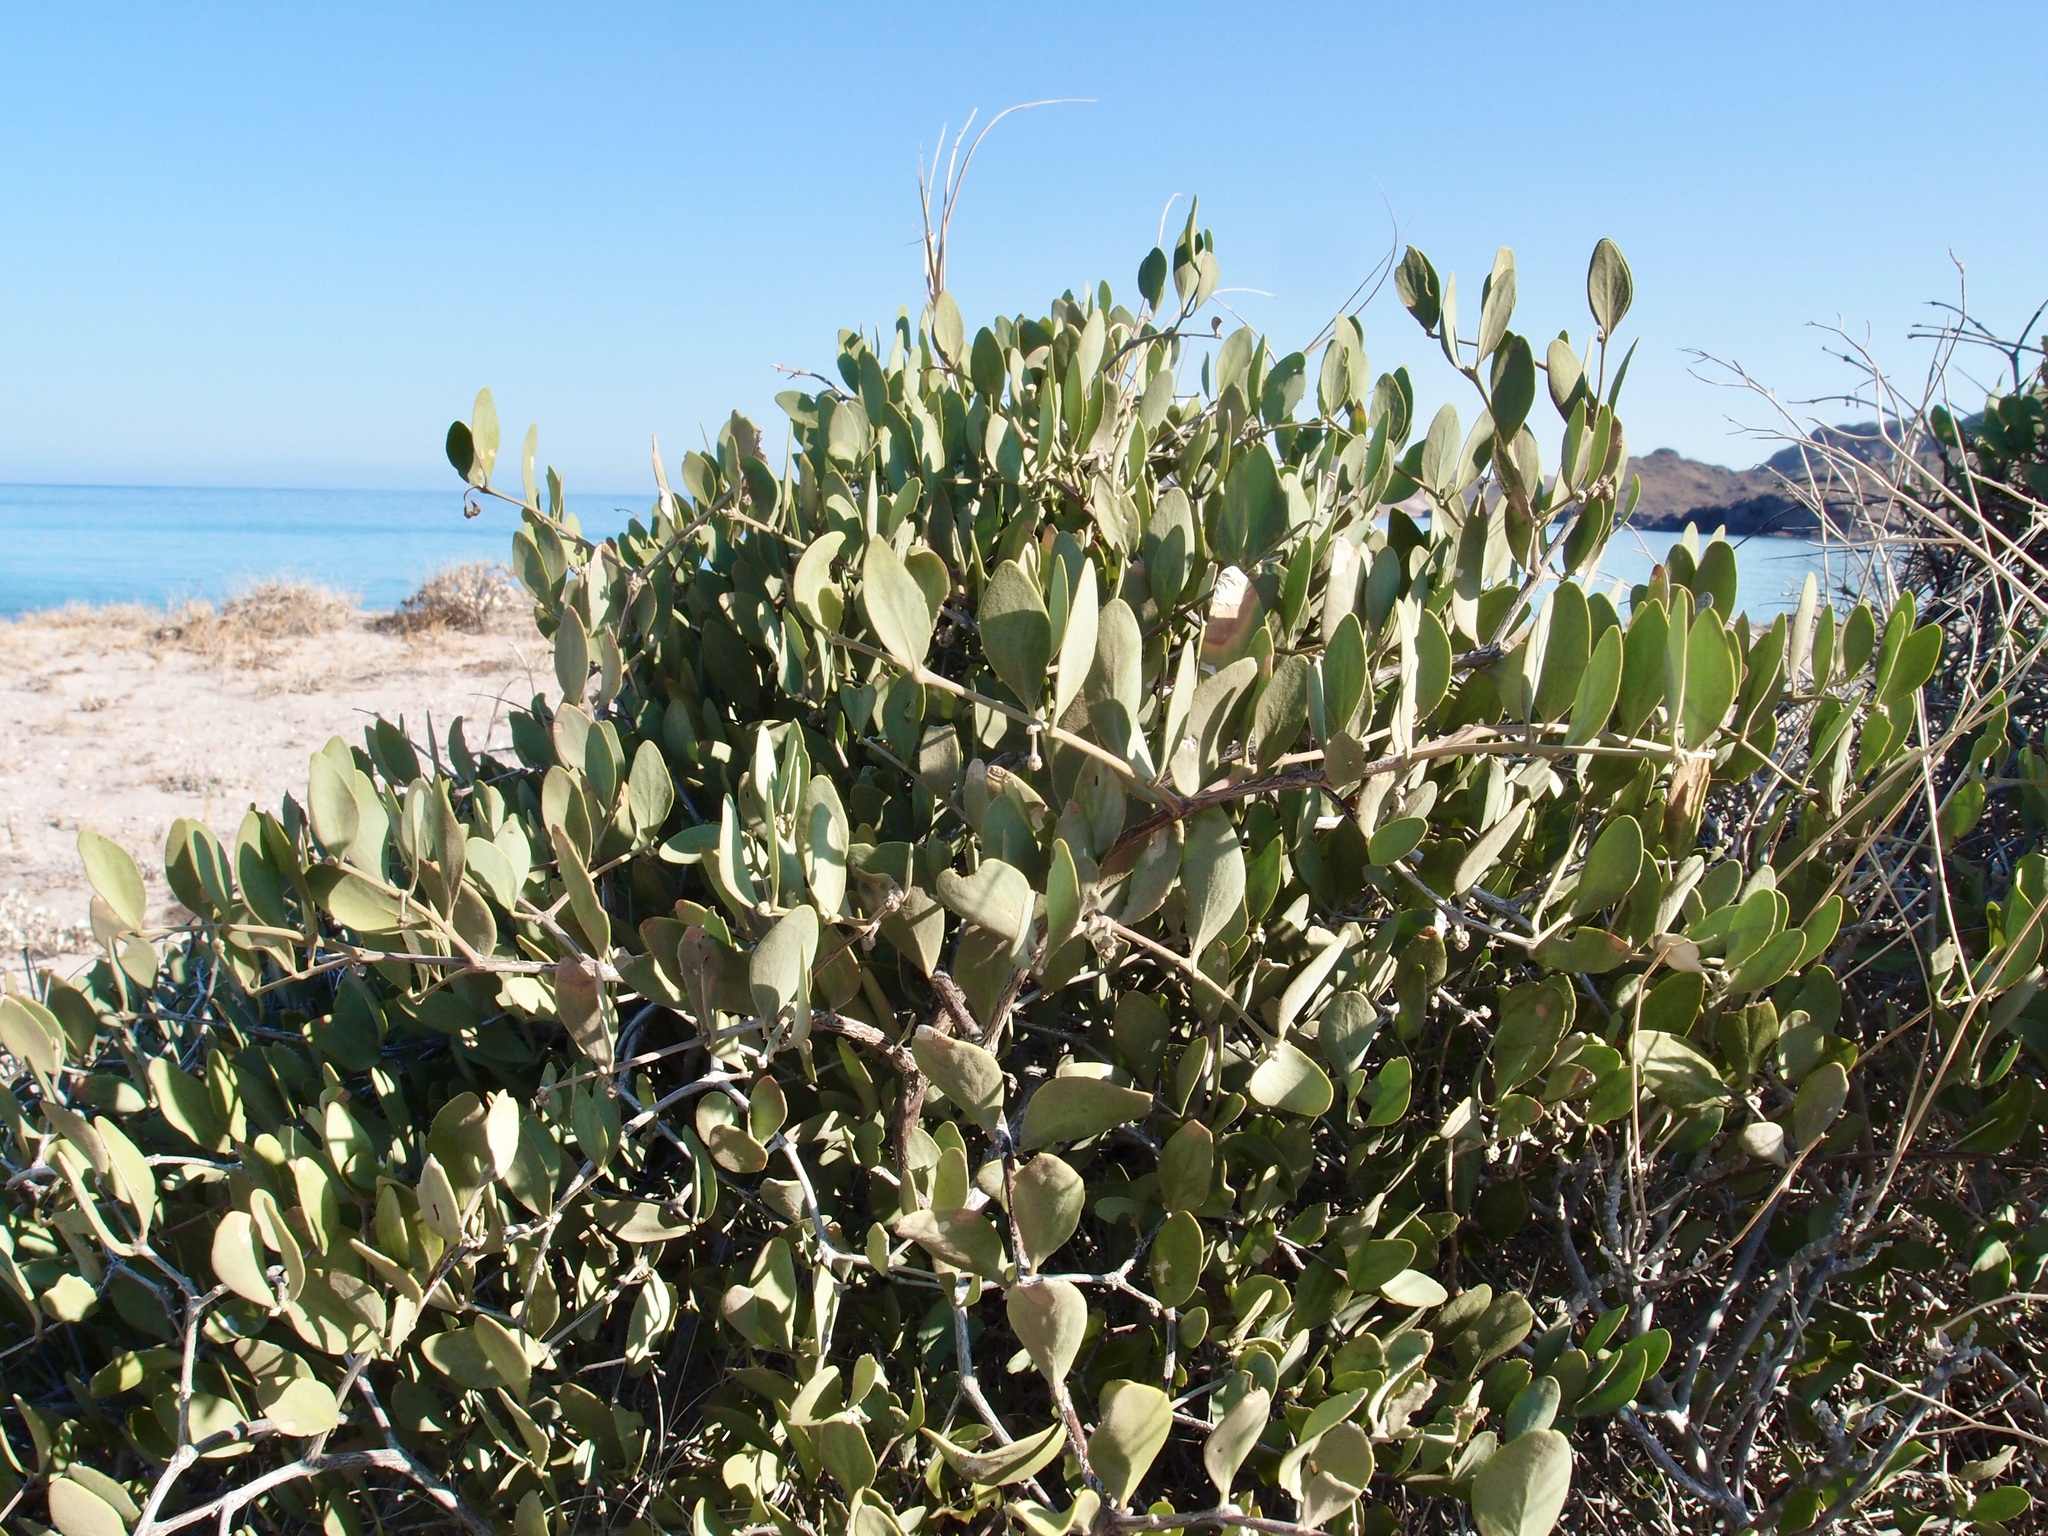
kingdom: Plantae
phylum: Tracheophyta
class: Magnoliopsida
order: Caryophyllales
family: Simmondsiaceae
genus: Simmondsia
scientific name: Simmondsia chinensis
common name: Jojoba
